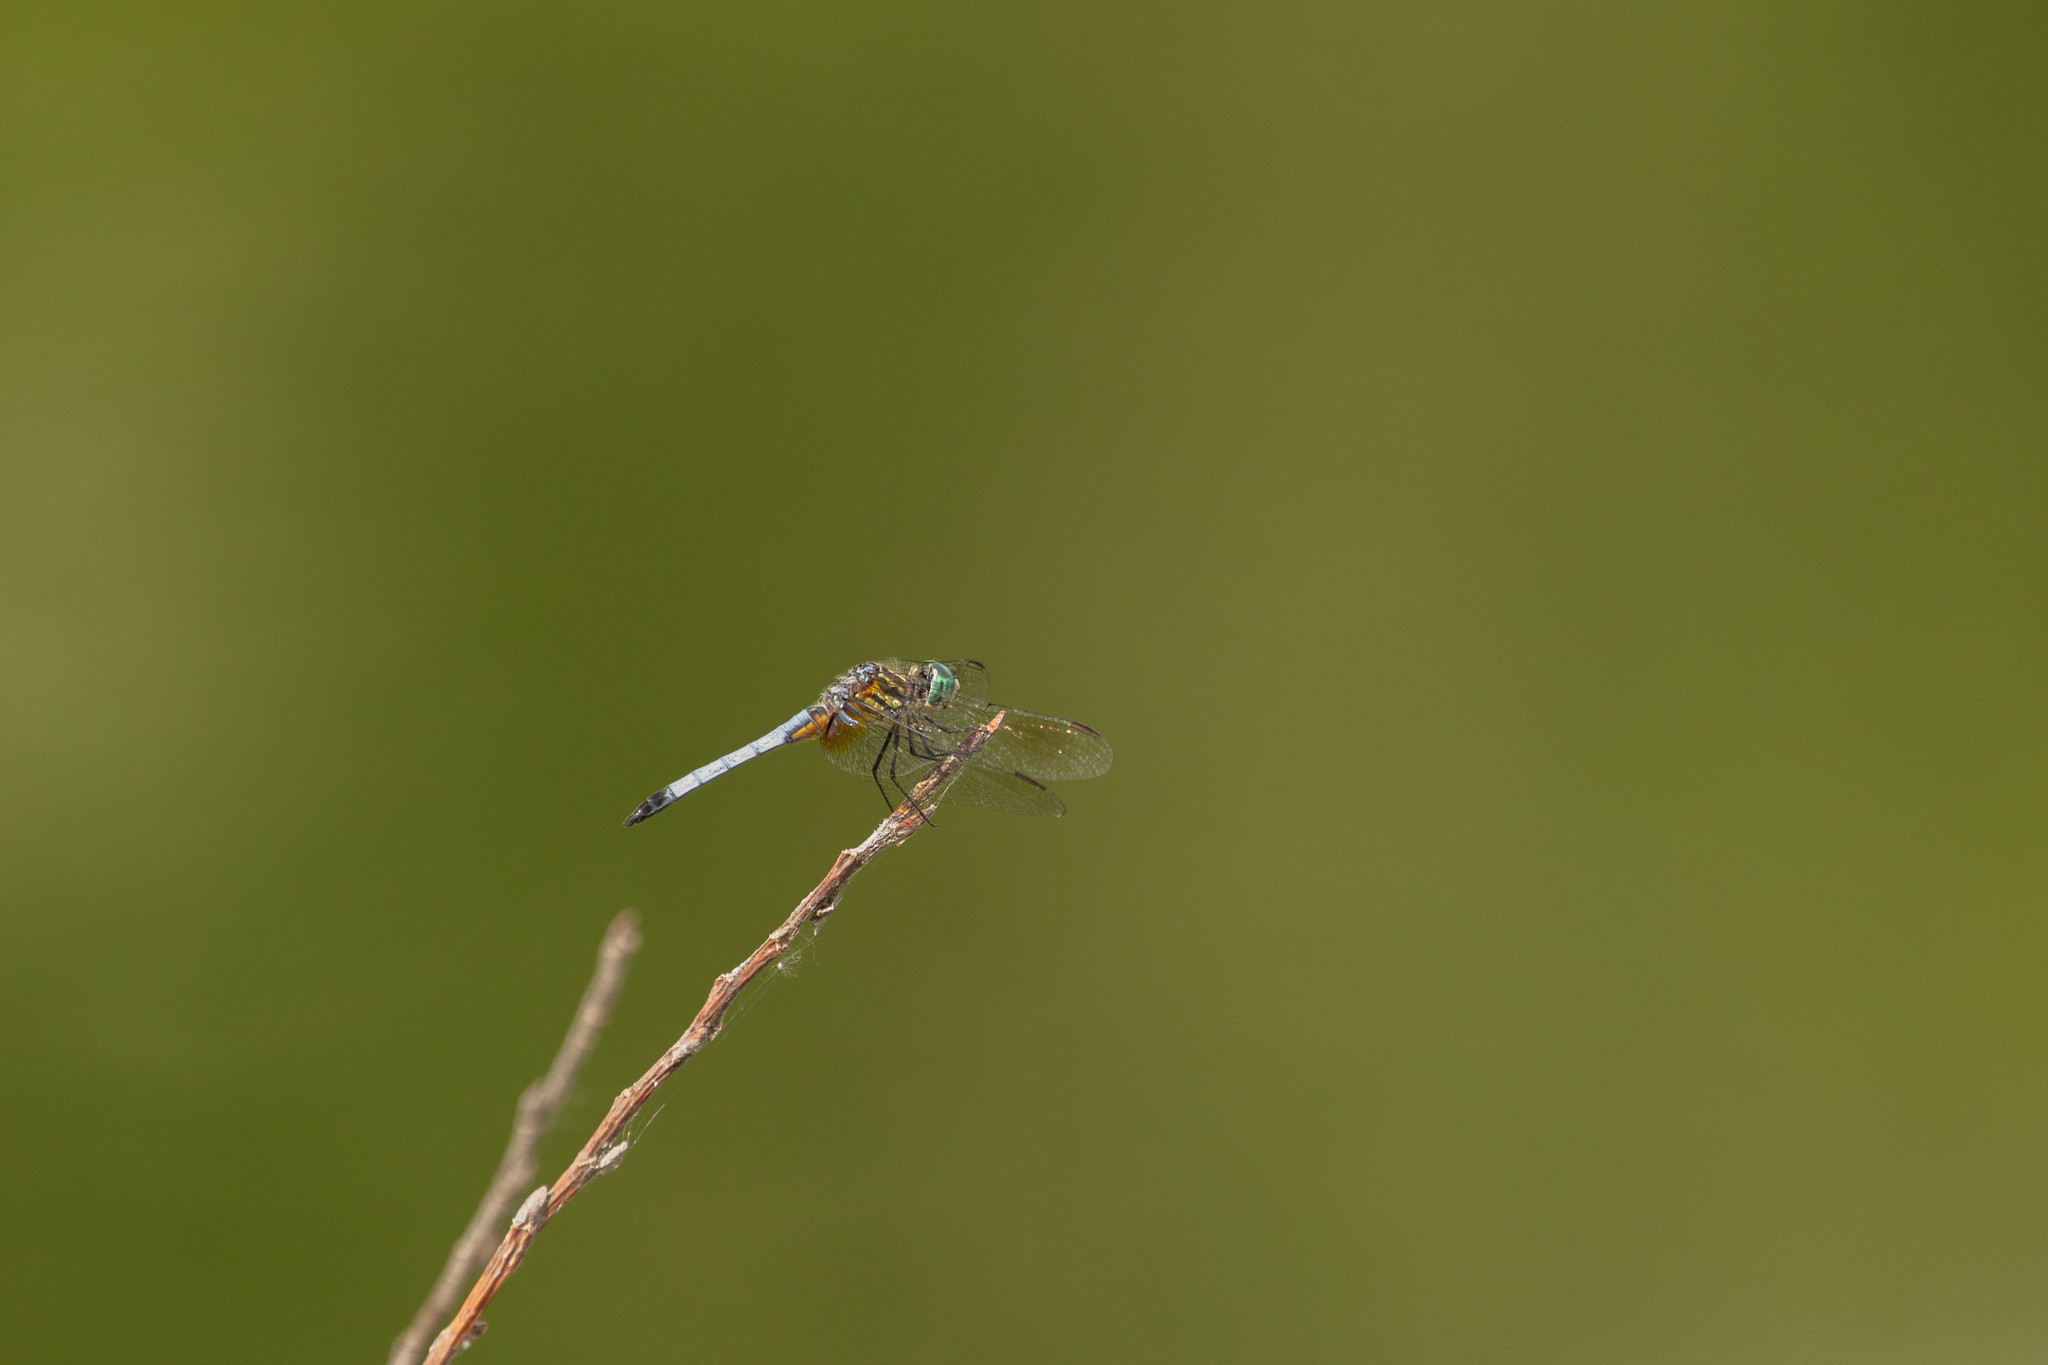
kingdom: Animalia
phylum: Arthropoda
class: Insecta
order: Odonata
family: Libellulidae
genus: Pachydiplax
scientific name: Pachydiplax longipennis
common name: Blue dasher
